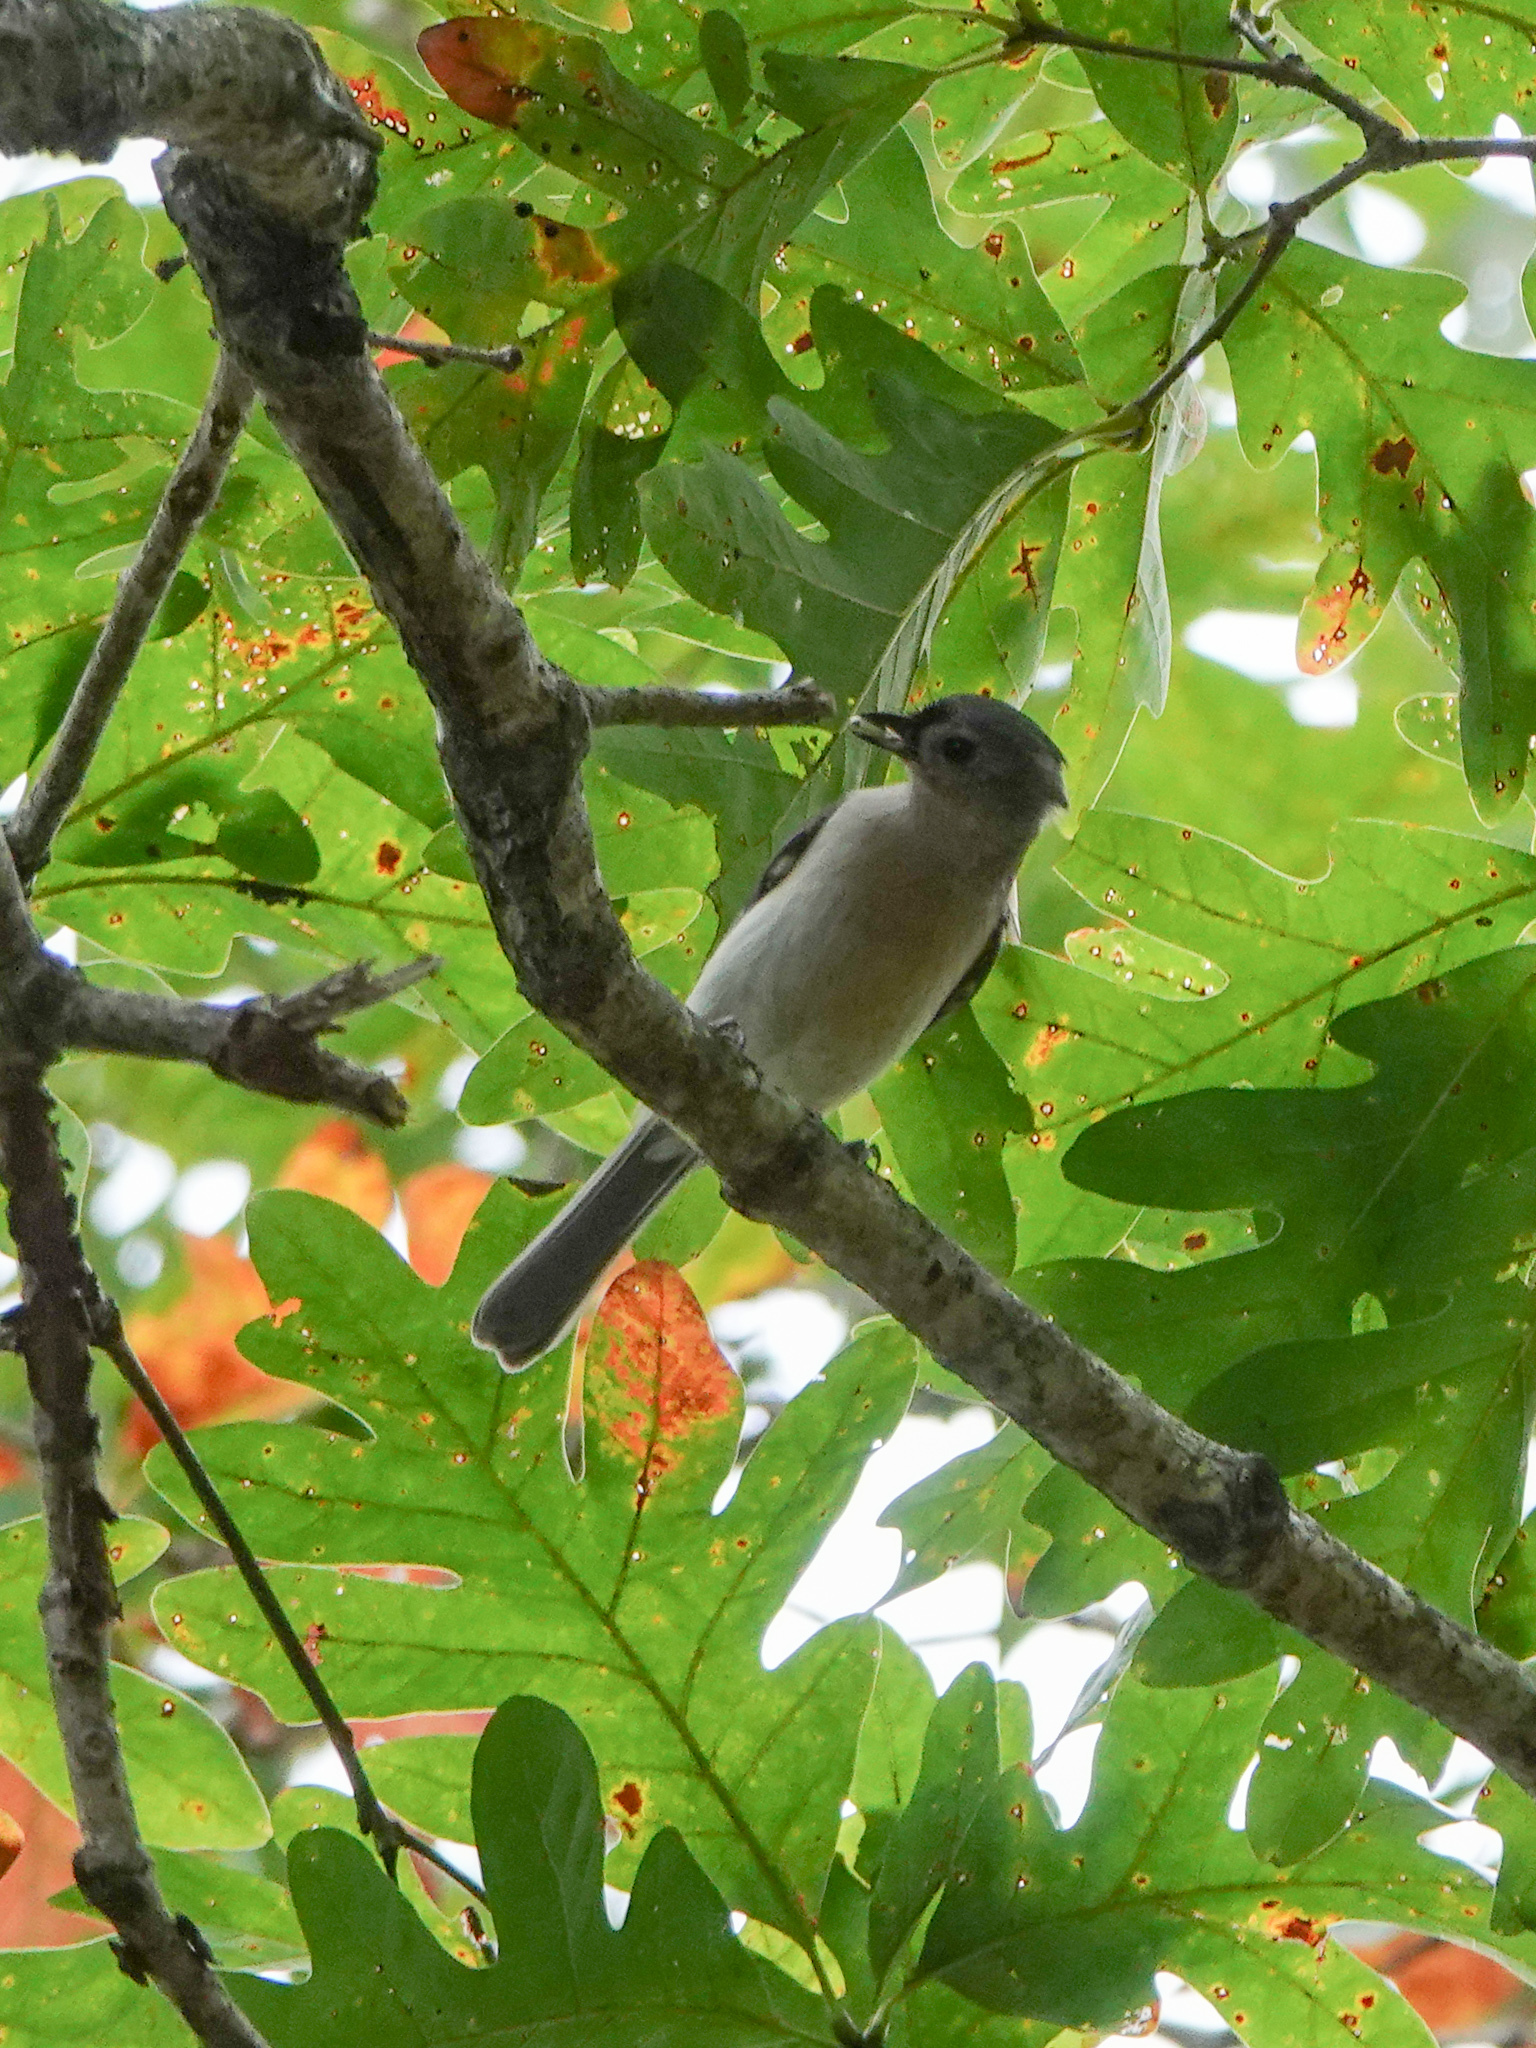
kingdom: Animalia
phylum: Chordata
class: Aves
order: Passeriformes
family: Paridae
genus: Baeolophus
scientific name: Baeolophus bicolor
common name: Tufted titmouse
